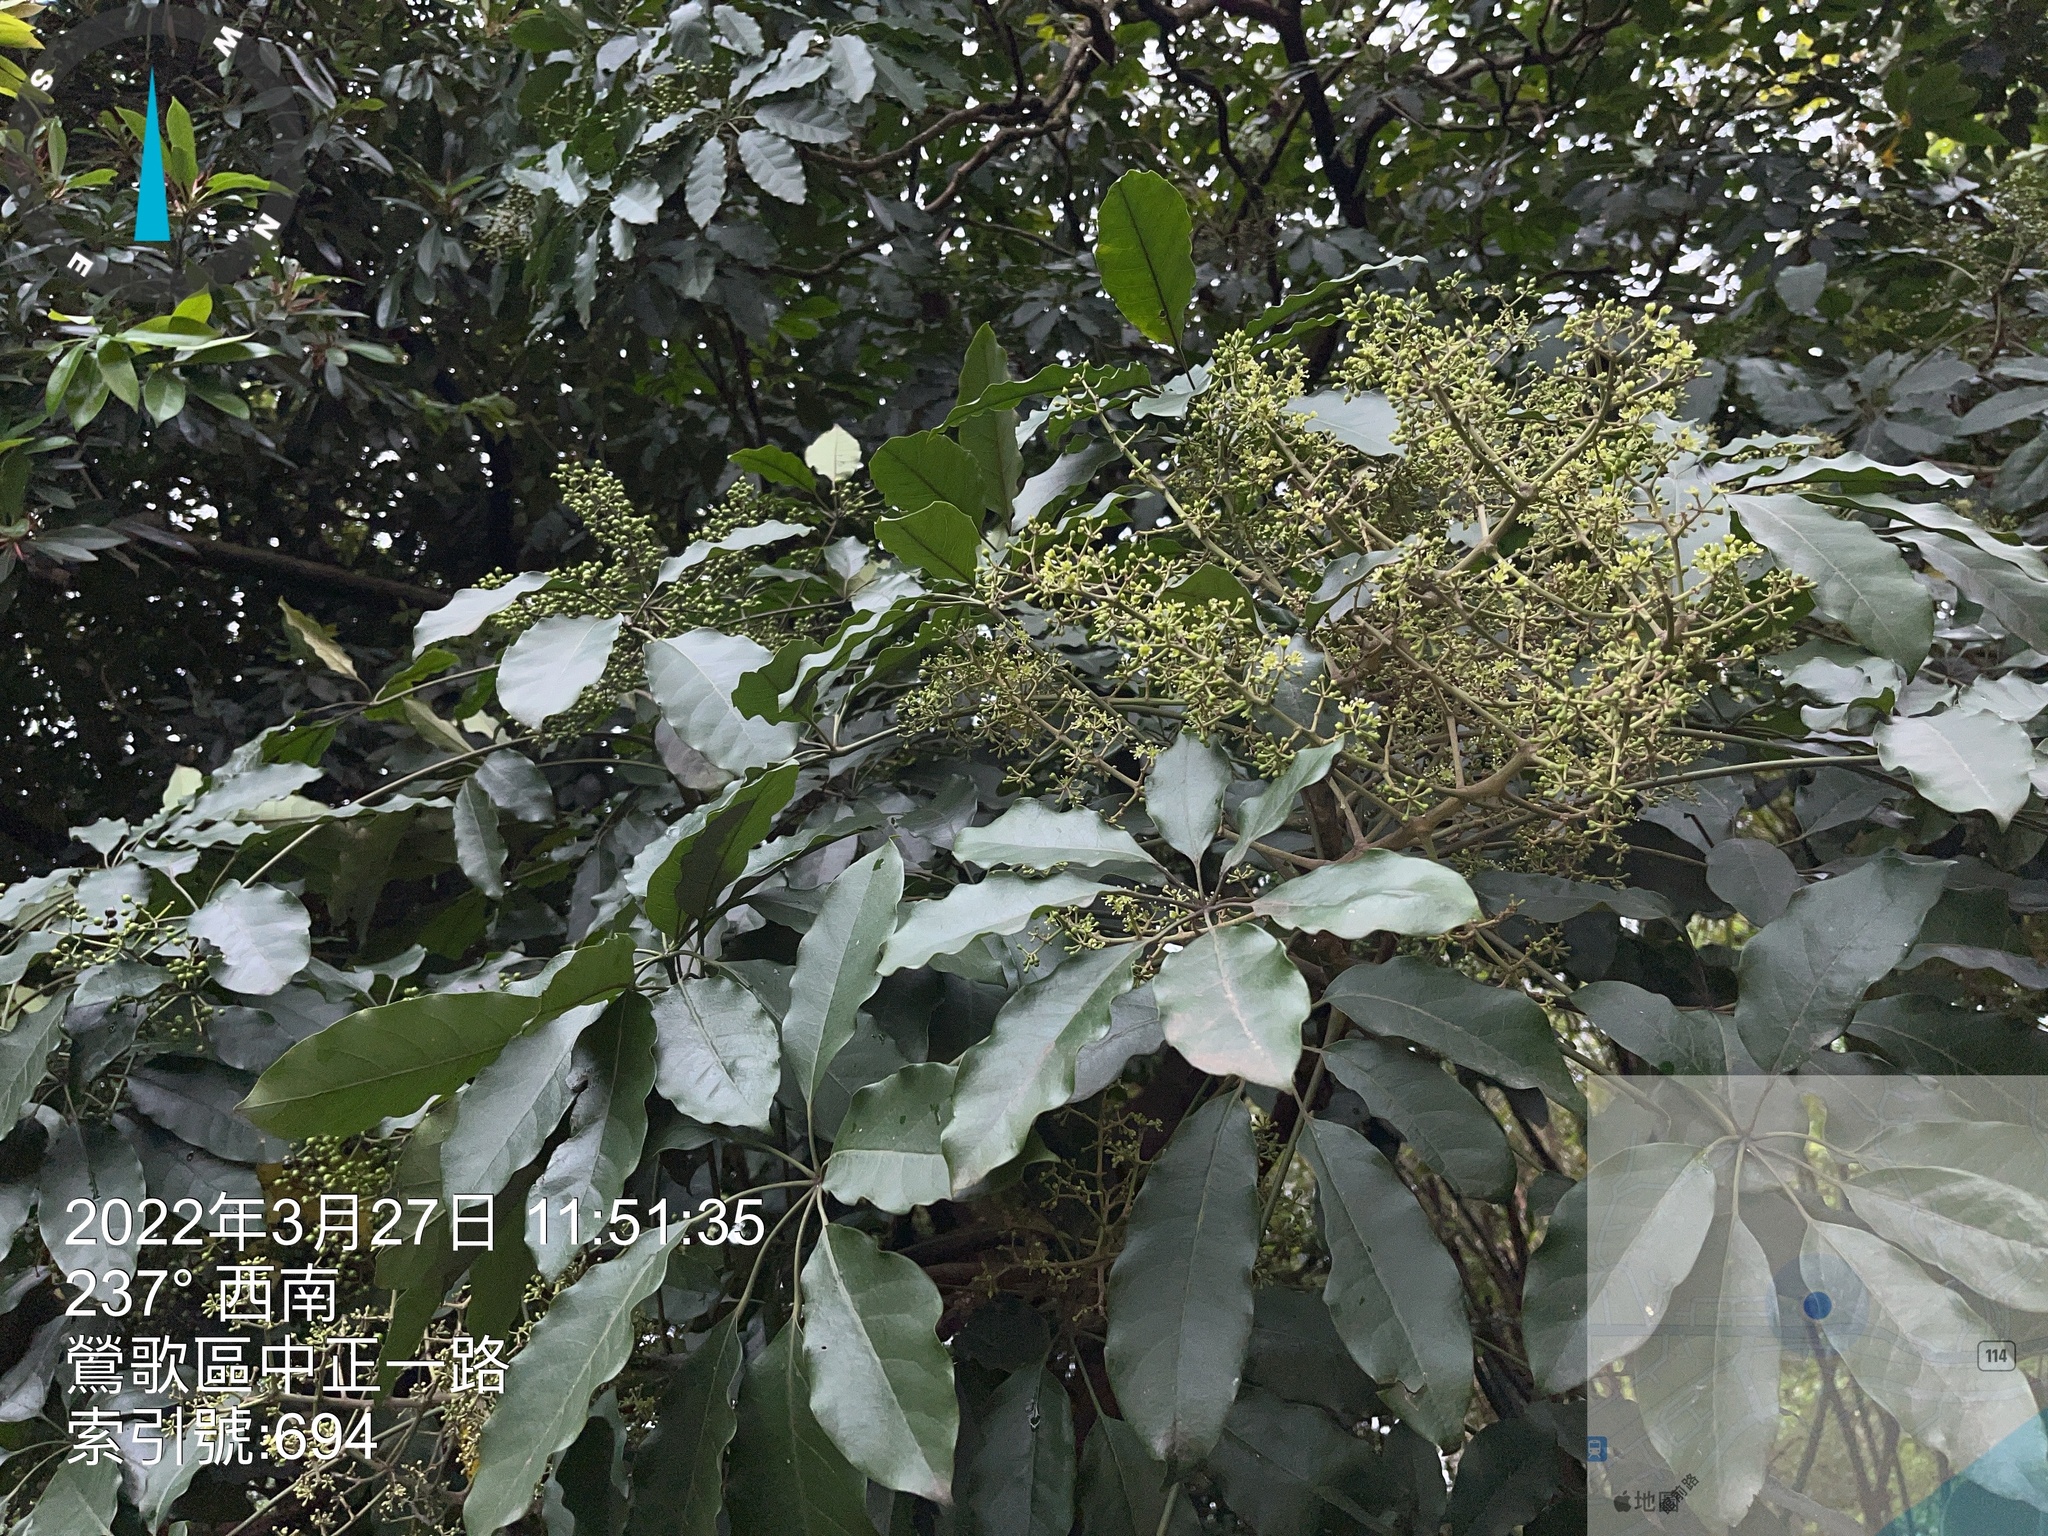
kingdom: Plantae
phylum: Tracheophyta
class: Magnoliopsida
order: Apiales
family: Araliaceae
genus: Heptapleurum
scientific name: Heptapleurum heptaphyllum
